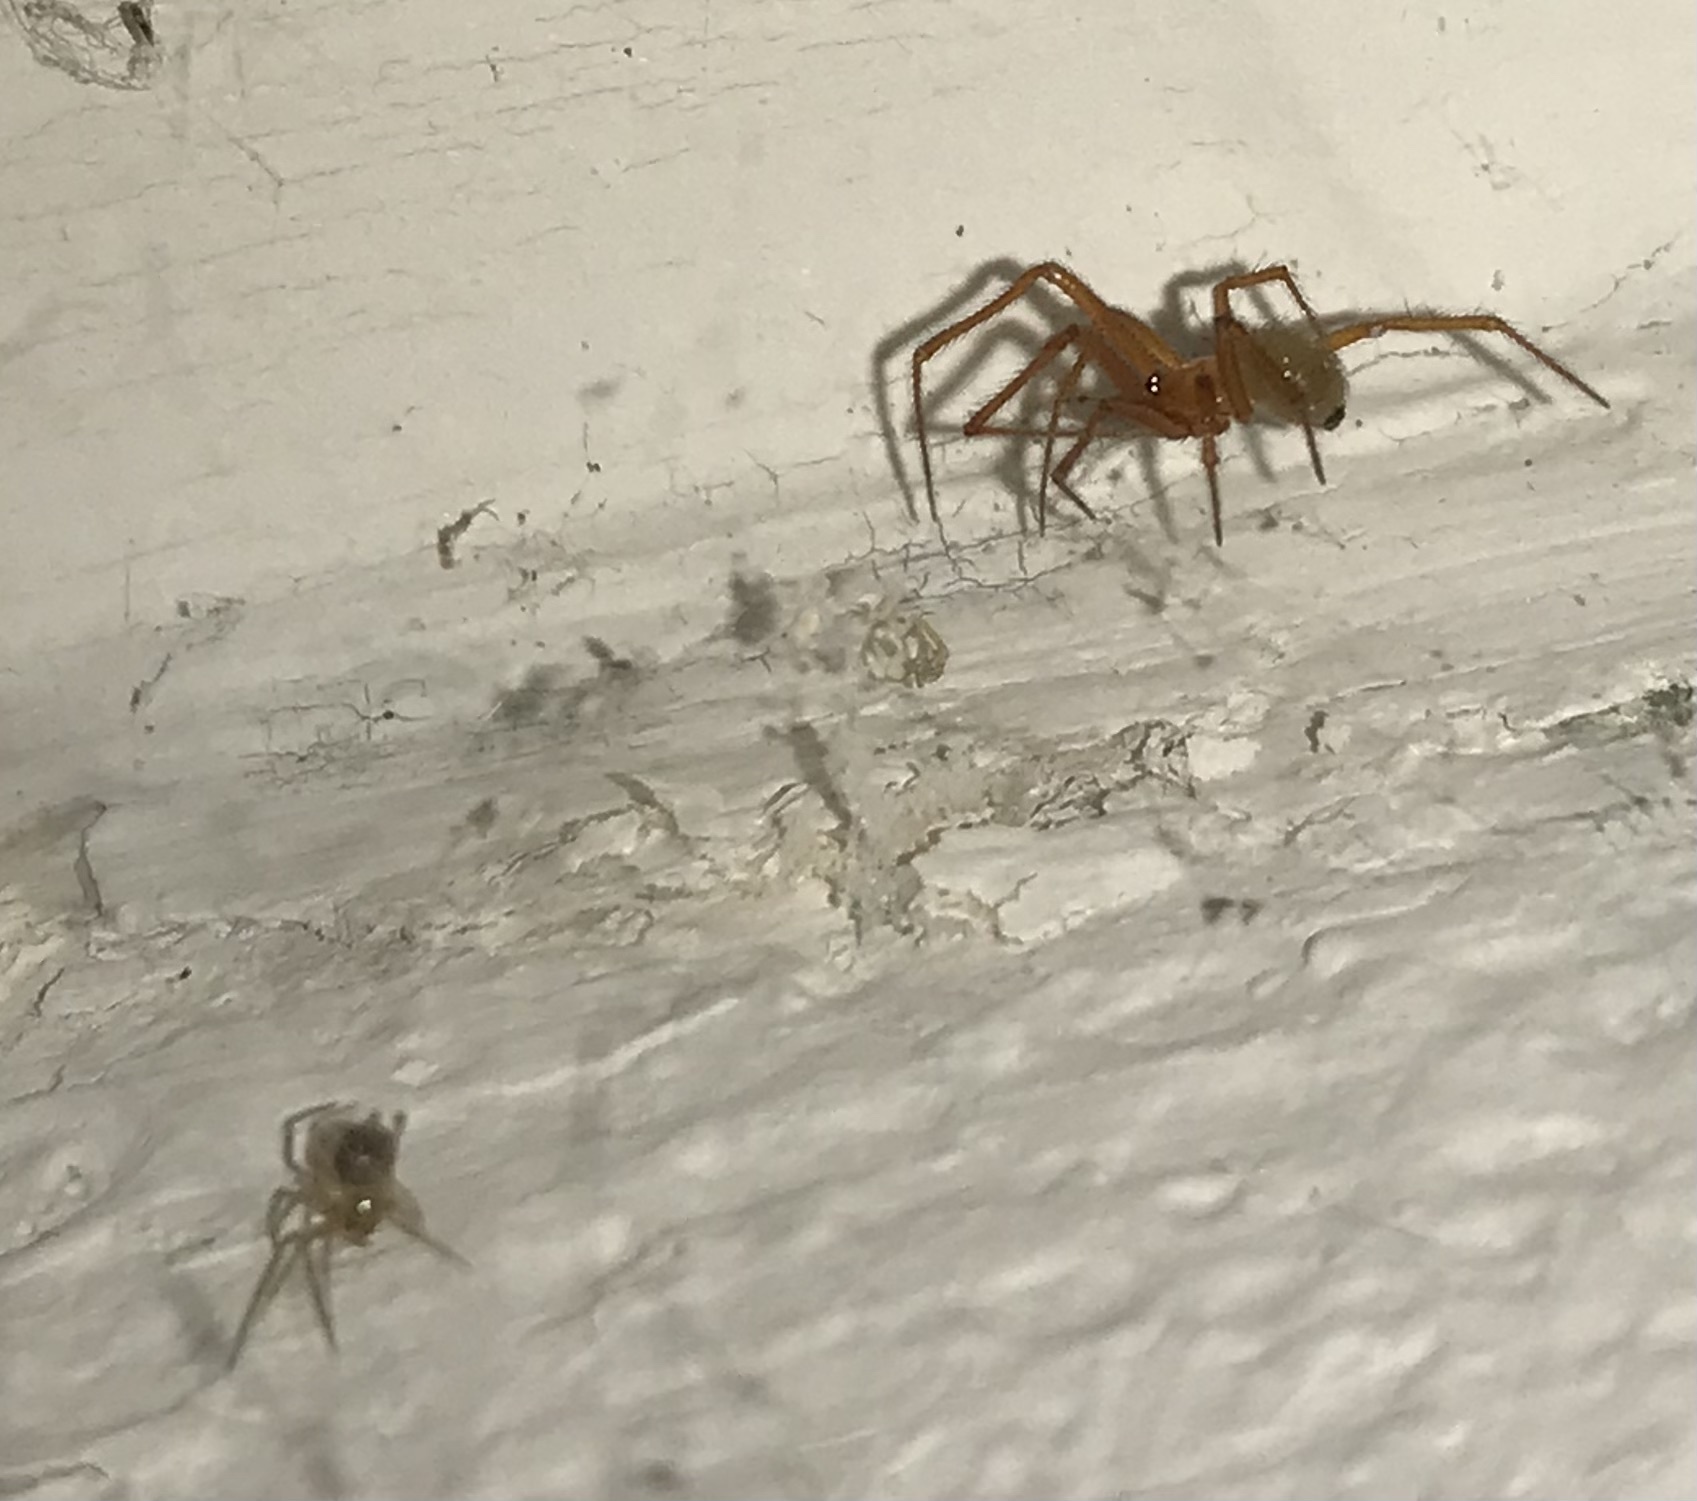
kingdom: Animalia
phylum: Arthropoda
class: Arachnida
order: Araneae
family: Theridiidae
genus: Nesticodes
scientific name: Nesticodes rufipes
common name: Cobweb spiders
